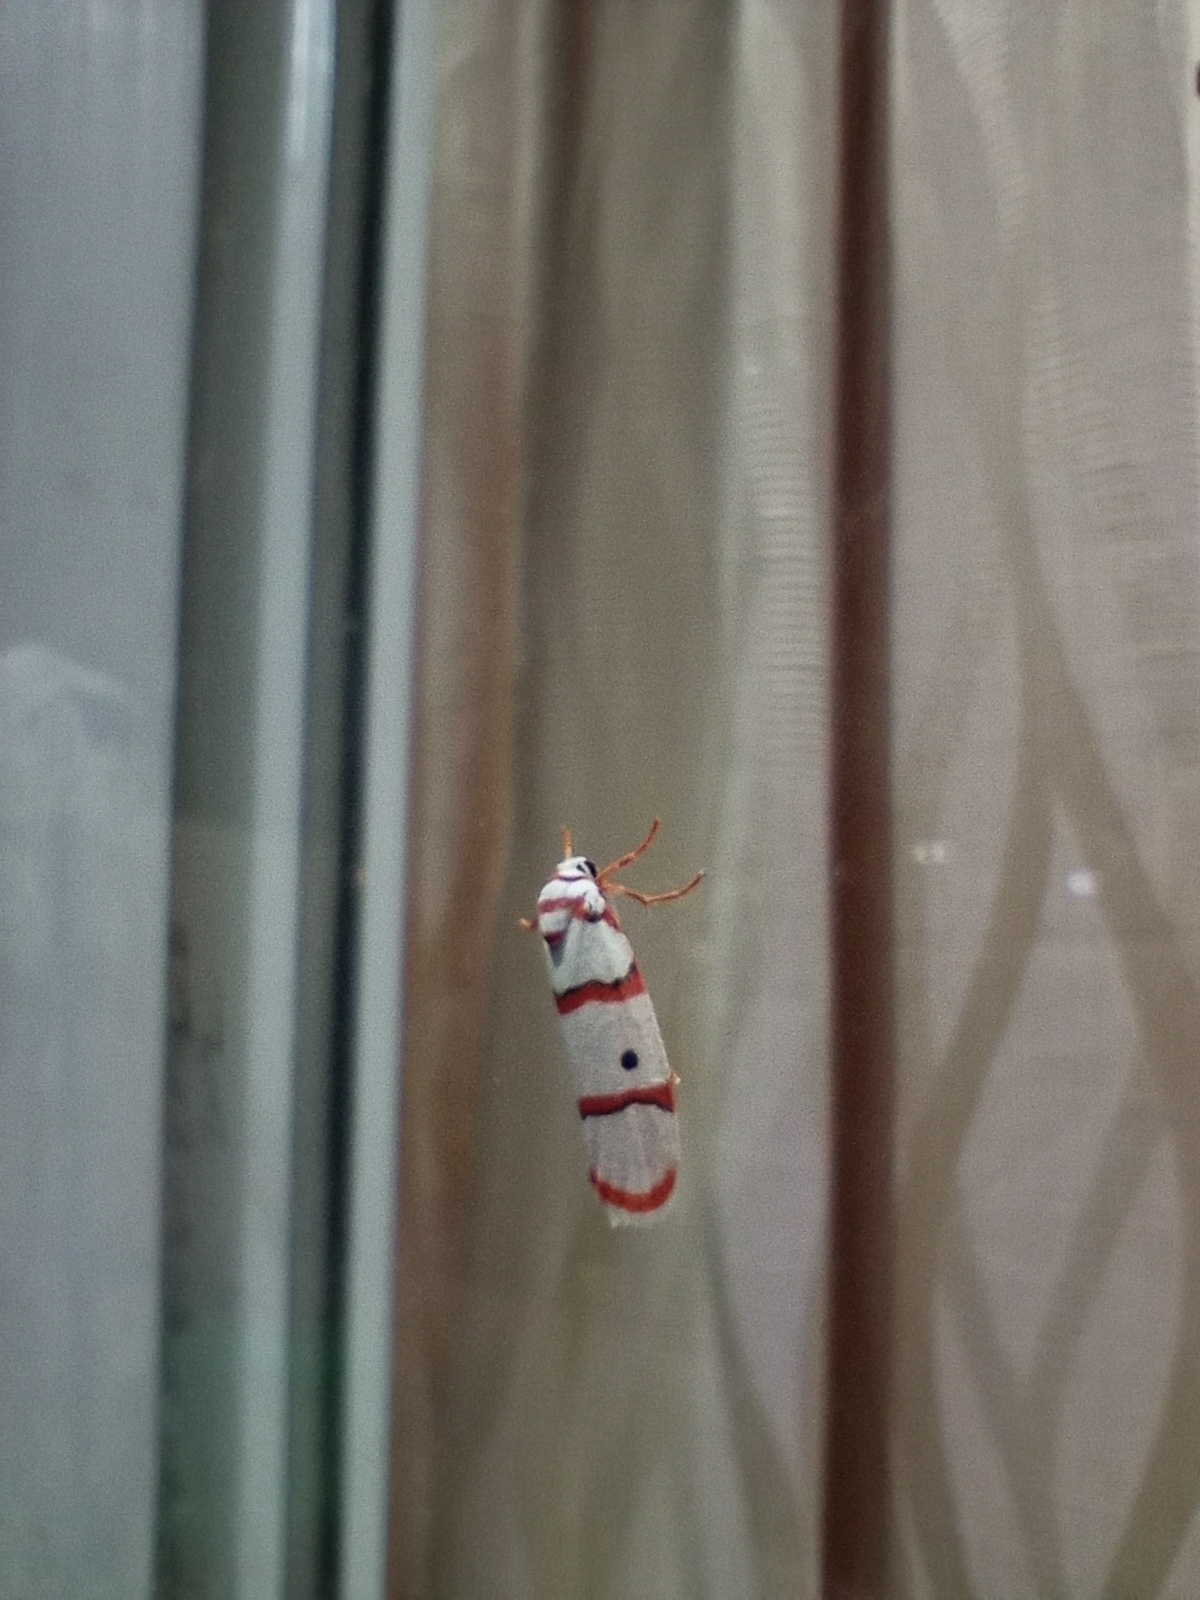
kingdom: Animalia
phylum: Arthropoda
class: Insecta
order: Lepidoptera
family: Erebidae
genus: Cyana
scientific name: Cyana peregrina
